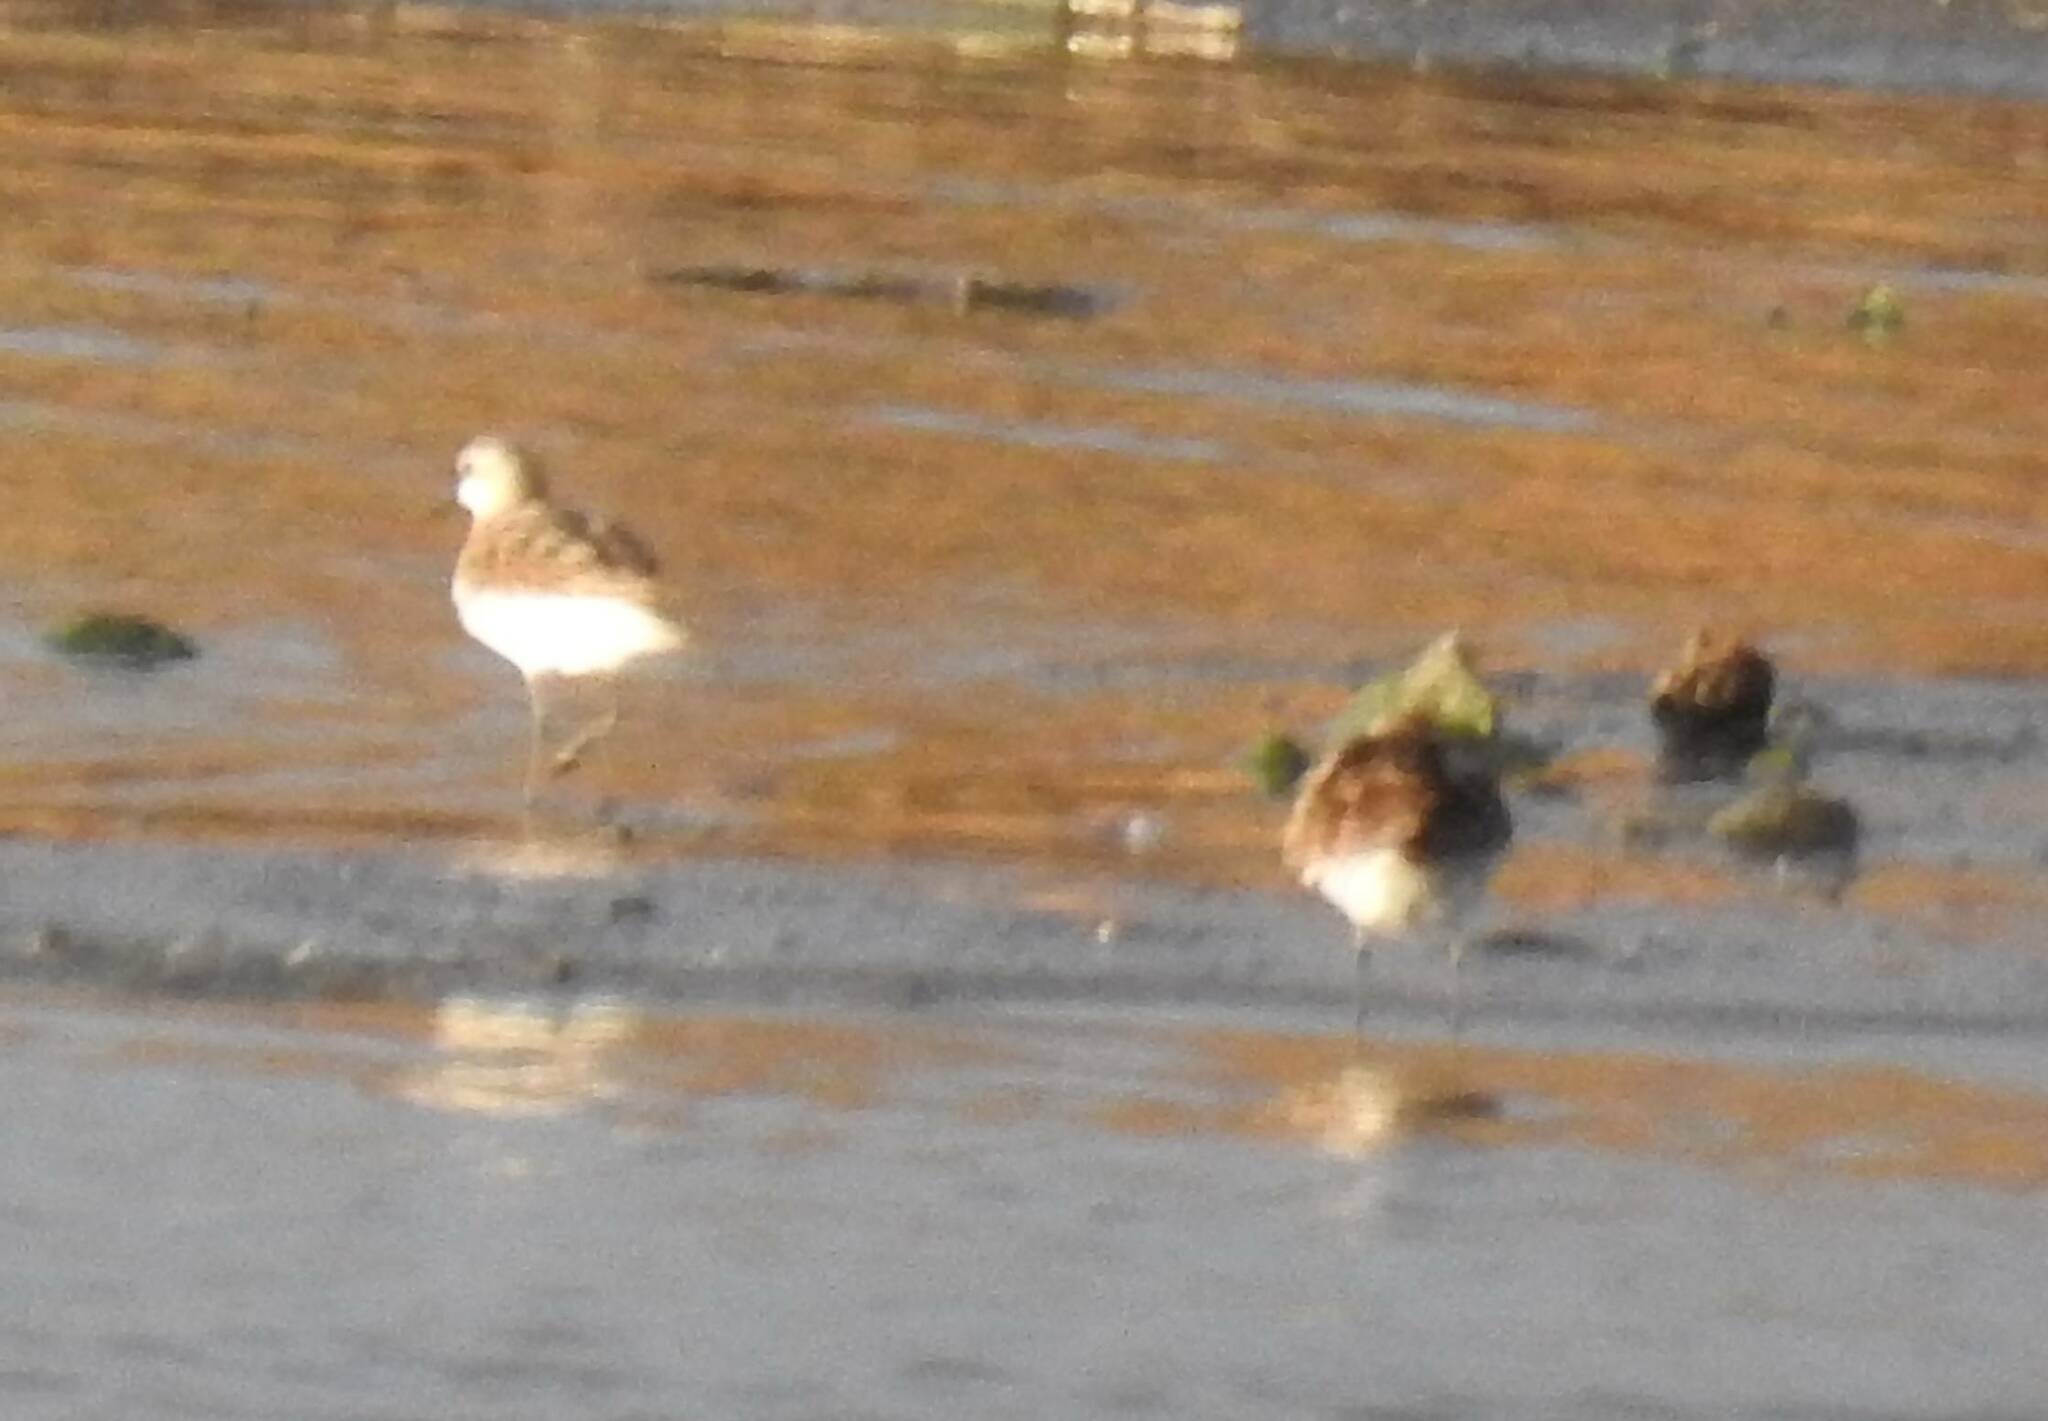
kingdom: Animalia
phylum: Chordata
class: Aves
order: Charadriiformes
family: Scolopacidae
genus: Calidris
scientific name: Calidris ferruginea
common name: Curlew sandpiper
